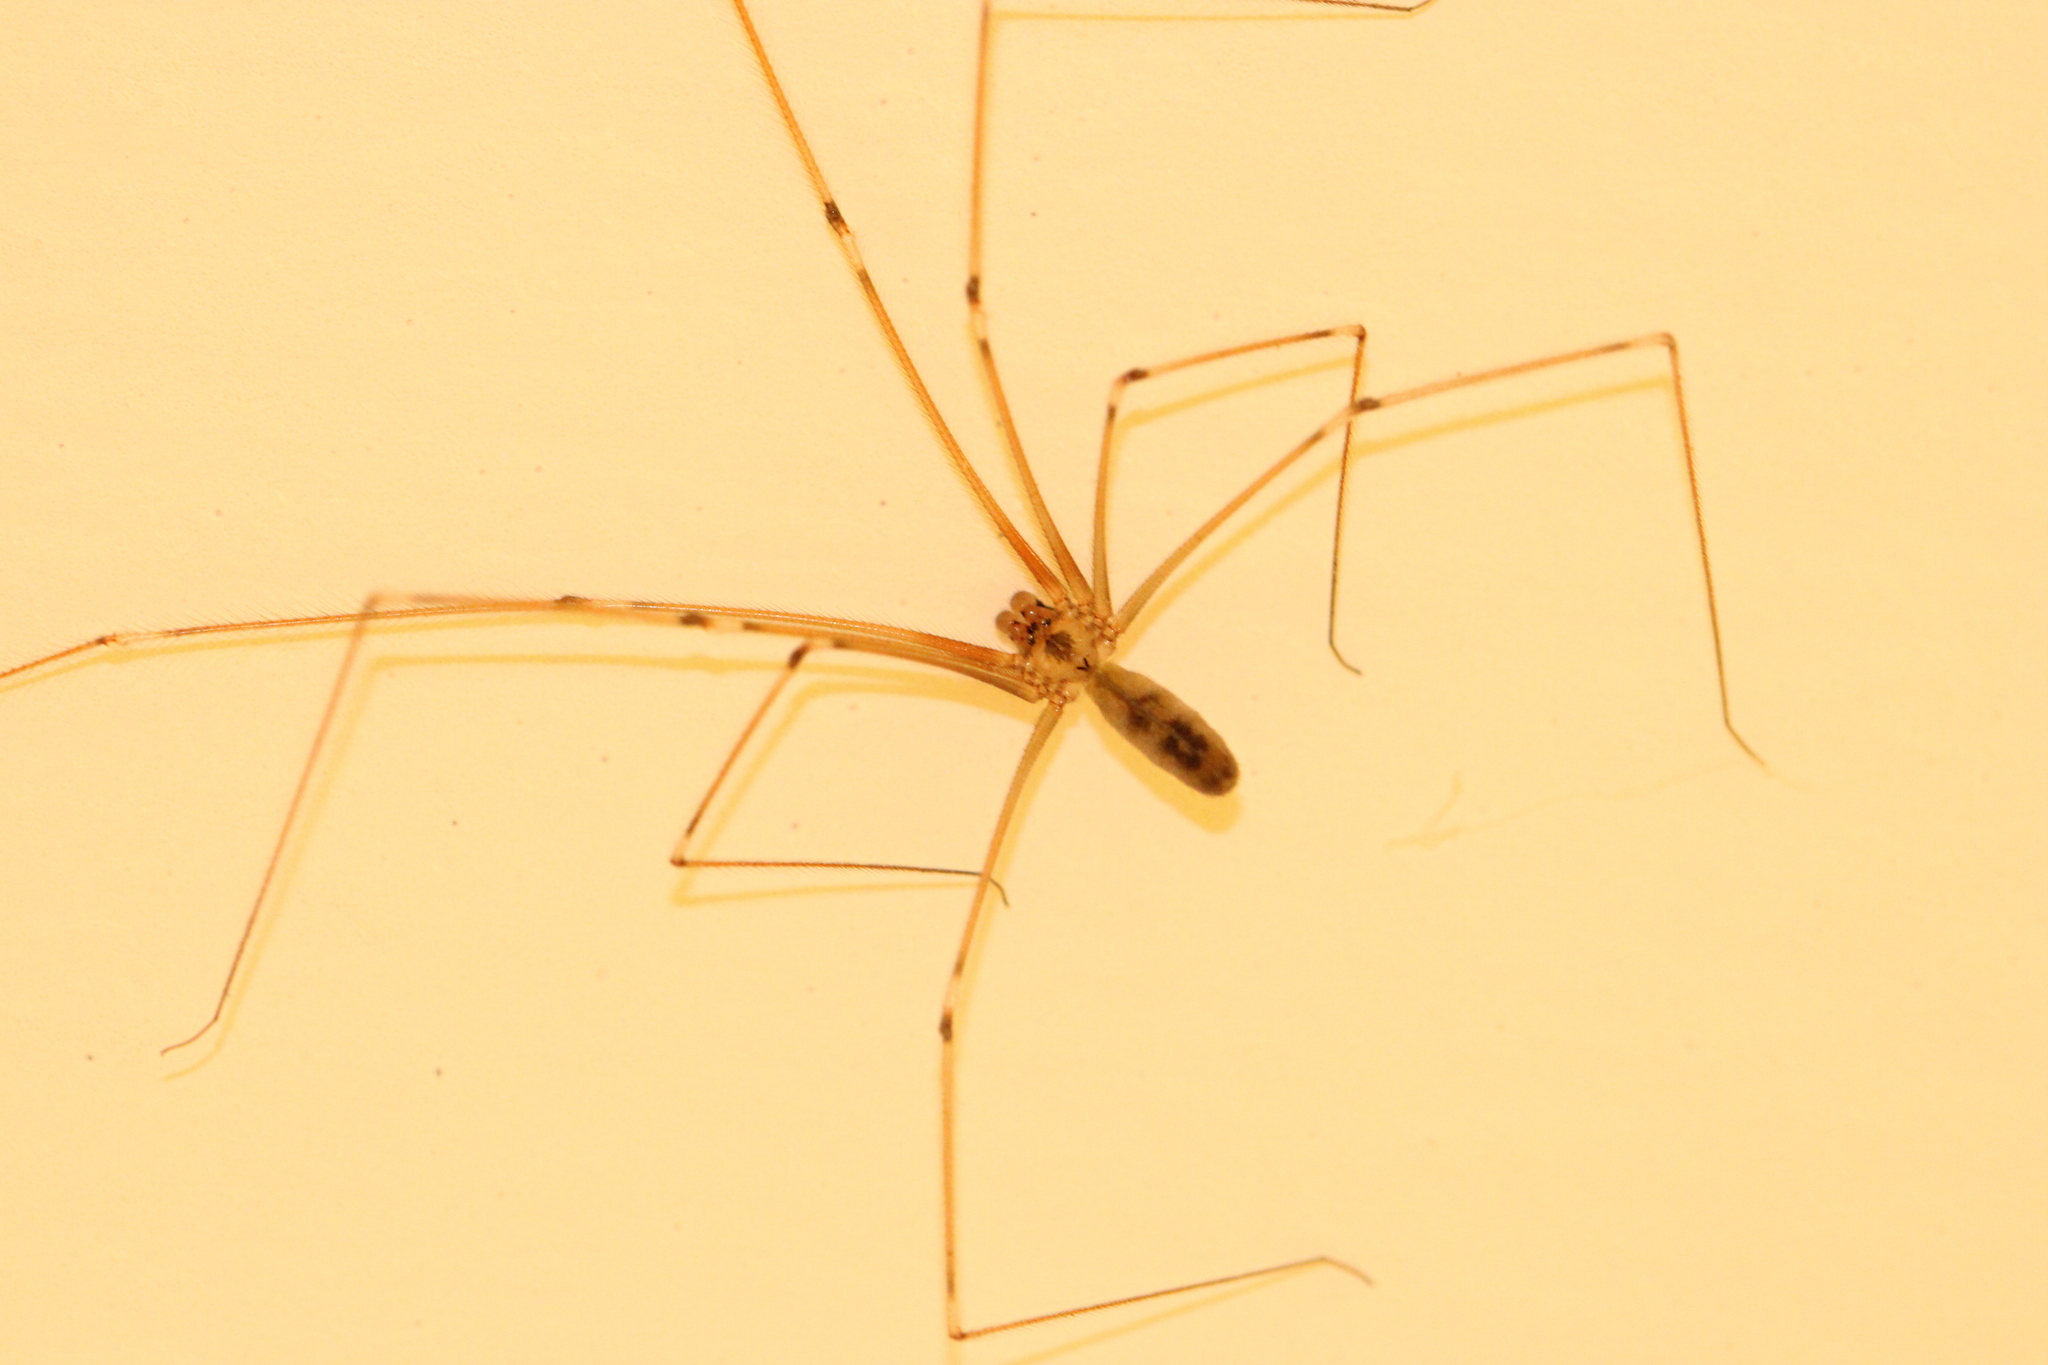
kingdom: Animalia
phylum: Arthropoda
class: Arachnida
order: Araneae
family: Pholcidae
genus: Pholcus
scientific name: Pholcus phalangioides
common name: Longbodied cellar spider
